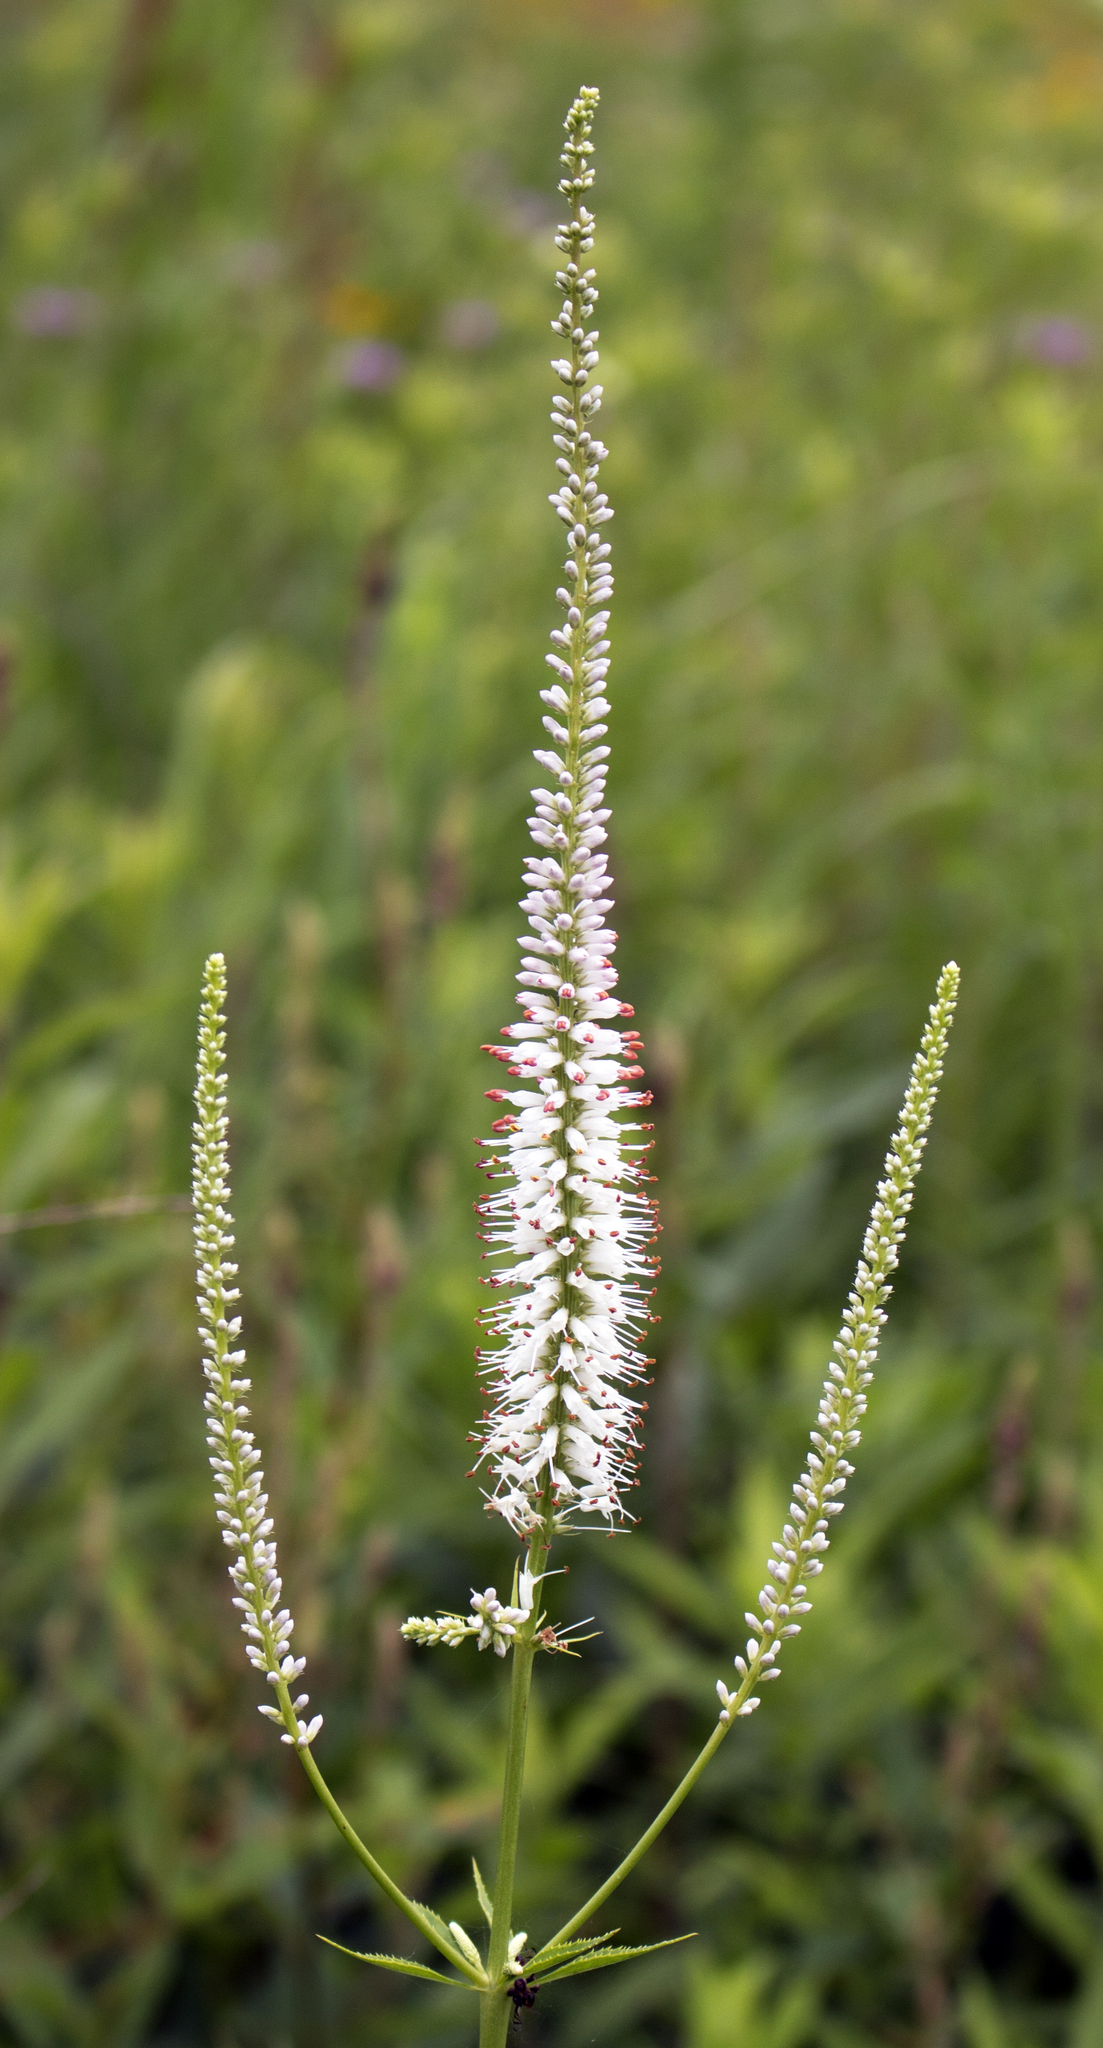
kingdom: Plantae
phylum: Tracheophyta
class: Magnoliopsida
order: Lamiales
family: Plantaginaceae
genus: Veronicastrum
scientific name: Veronicastrum virginicum
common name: Blackroot
